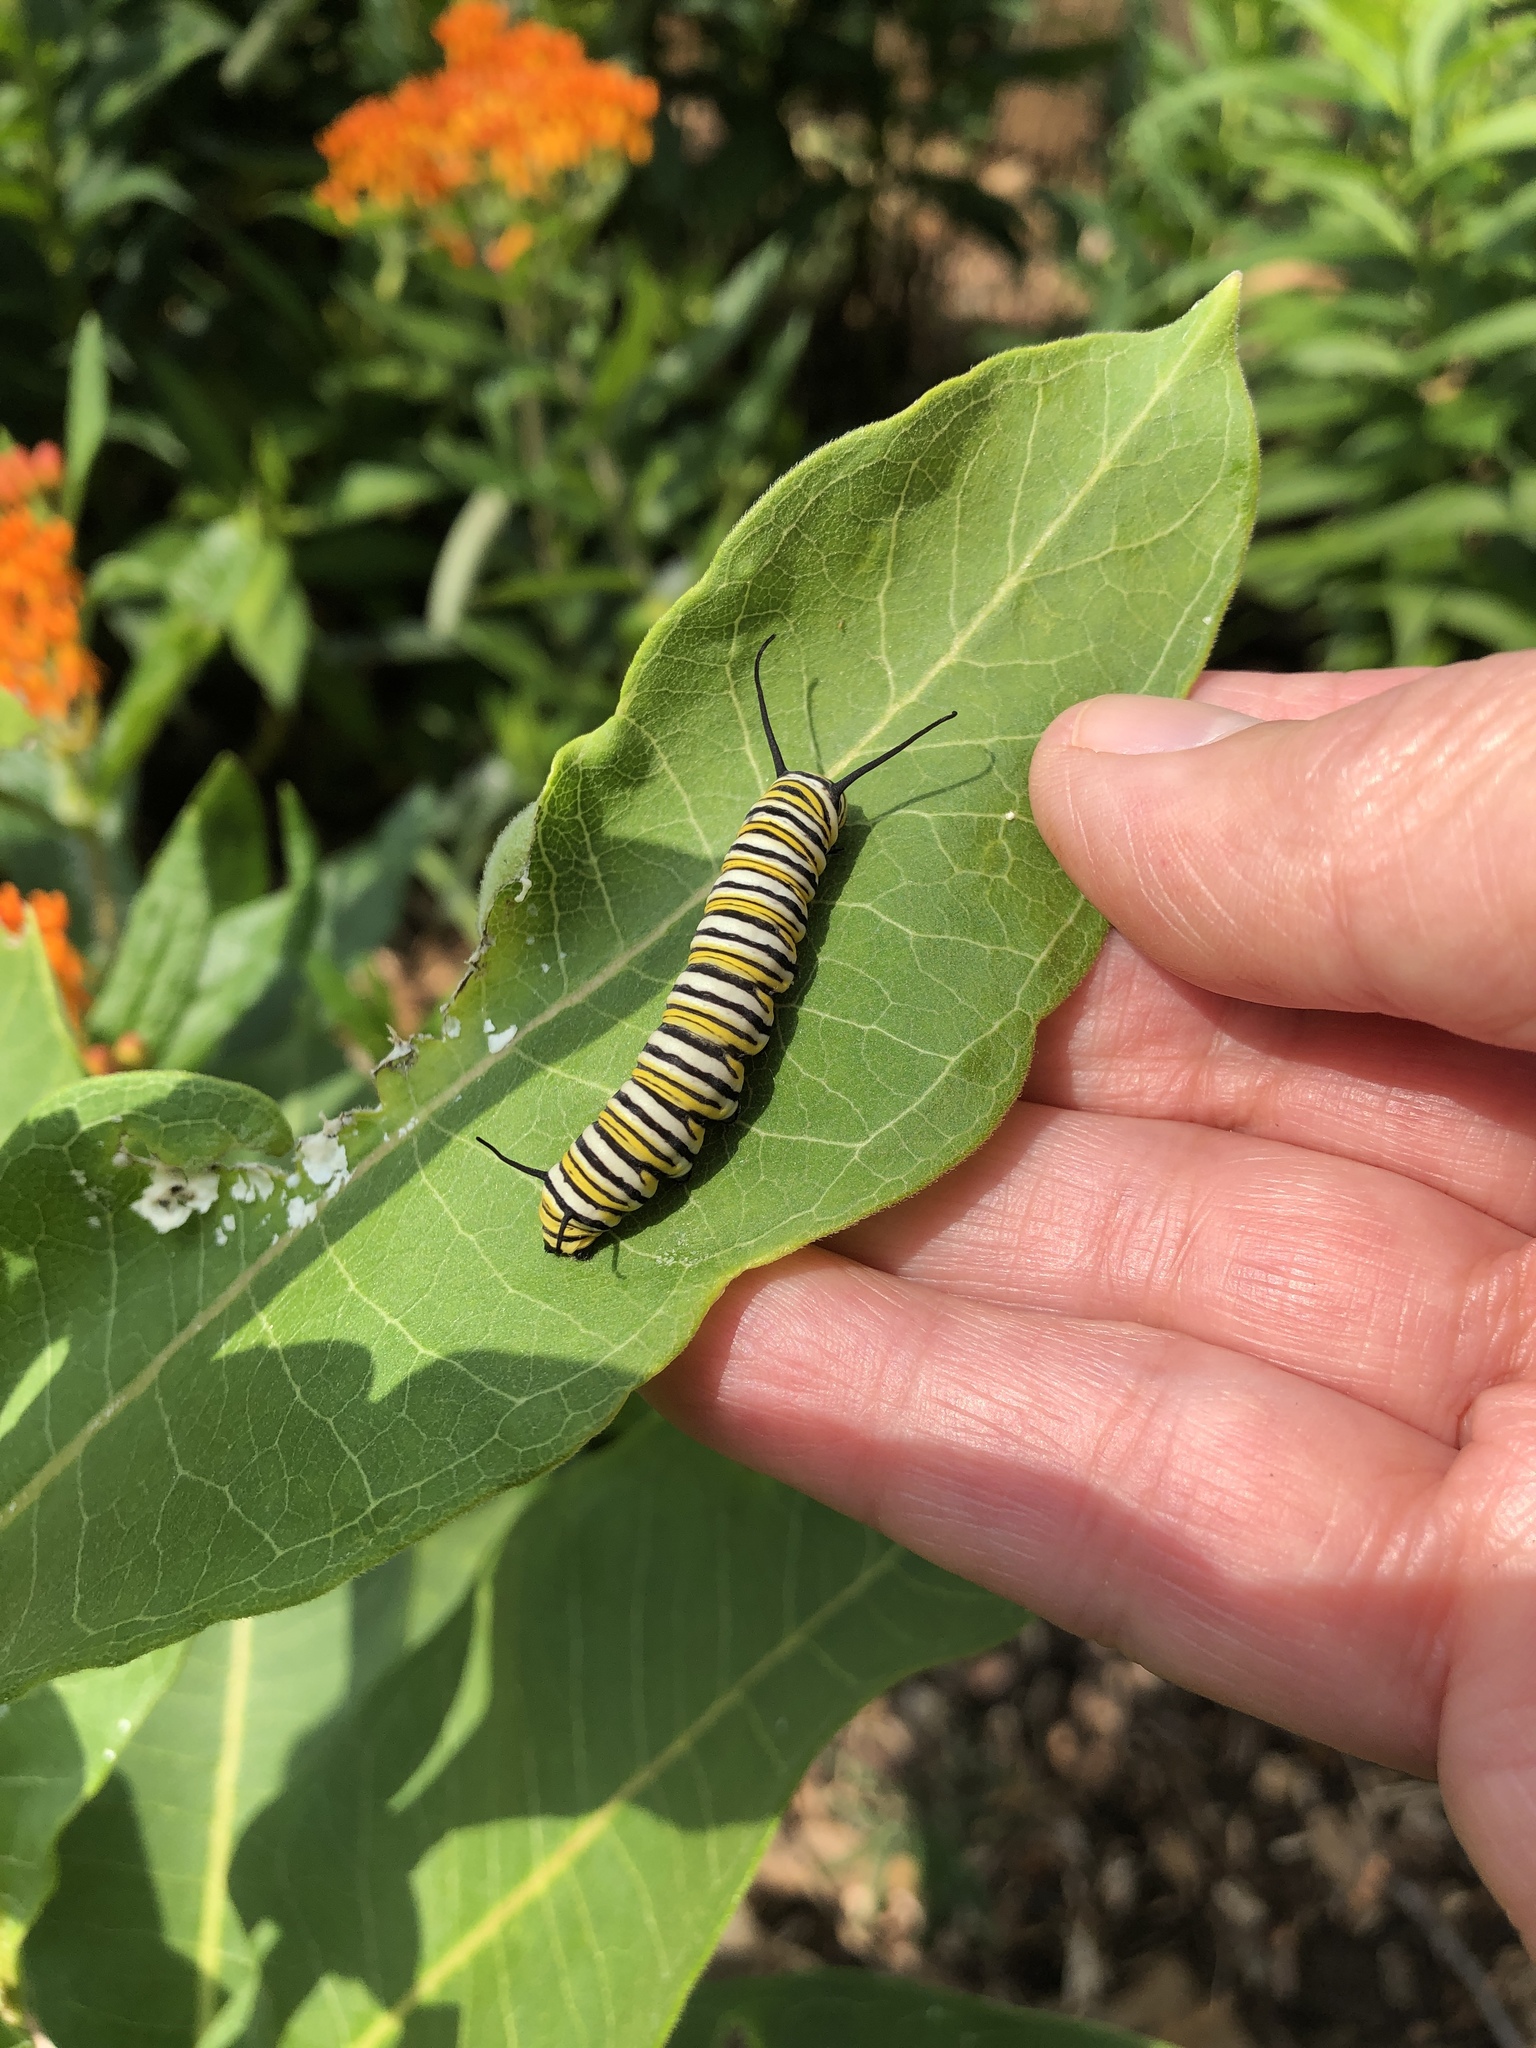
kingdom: Animalia
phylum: Arthropoda
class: Insecta
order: Lepidoptera
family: Nymphalidae
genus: Danaus
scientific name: Danaus plexippus
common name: Monarch
